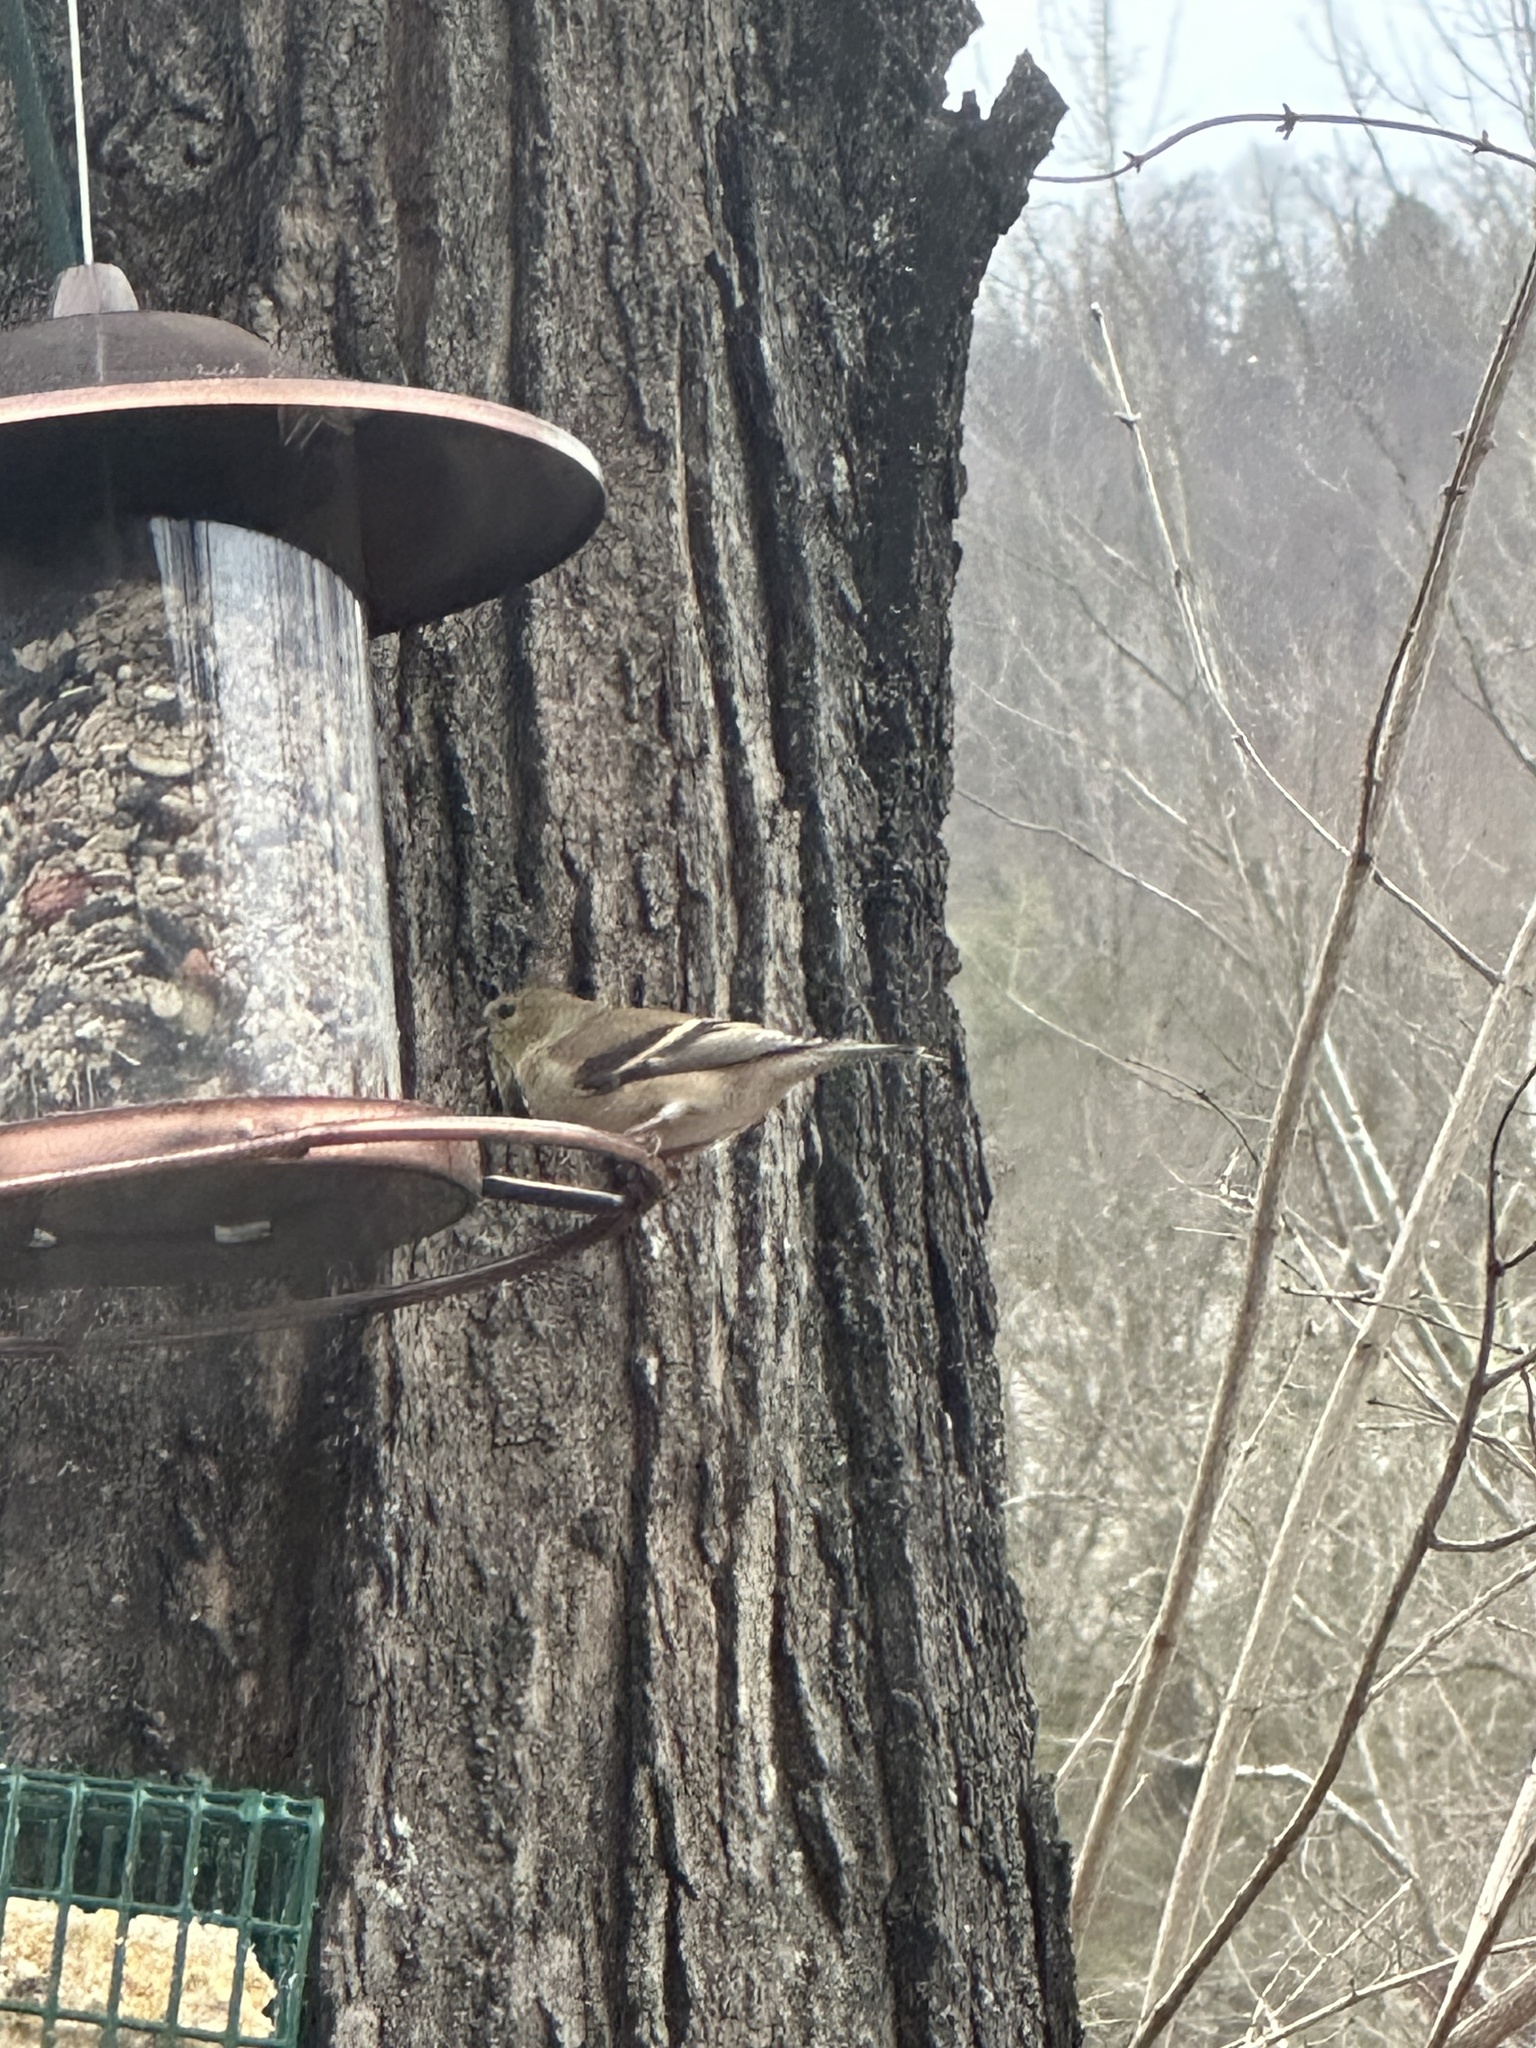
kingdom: Animalia
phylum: Chordata
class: Aves
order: Passeriformes
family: Fringillidae
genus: Spinus
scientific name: Spinus tristis
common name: American goldfinch
